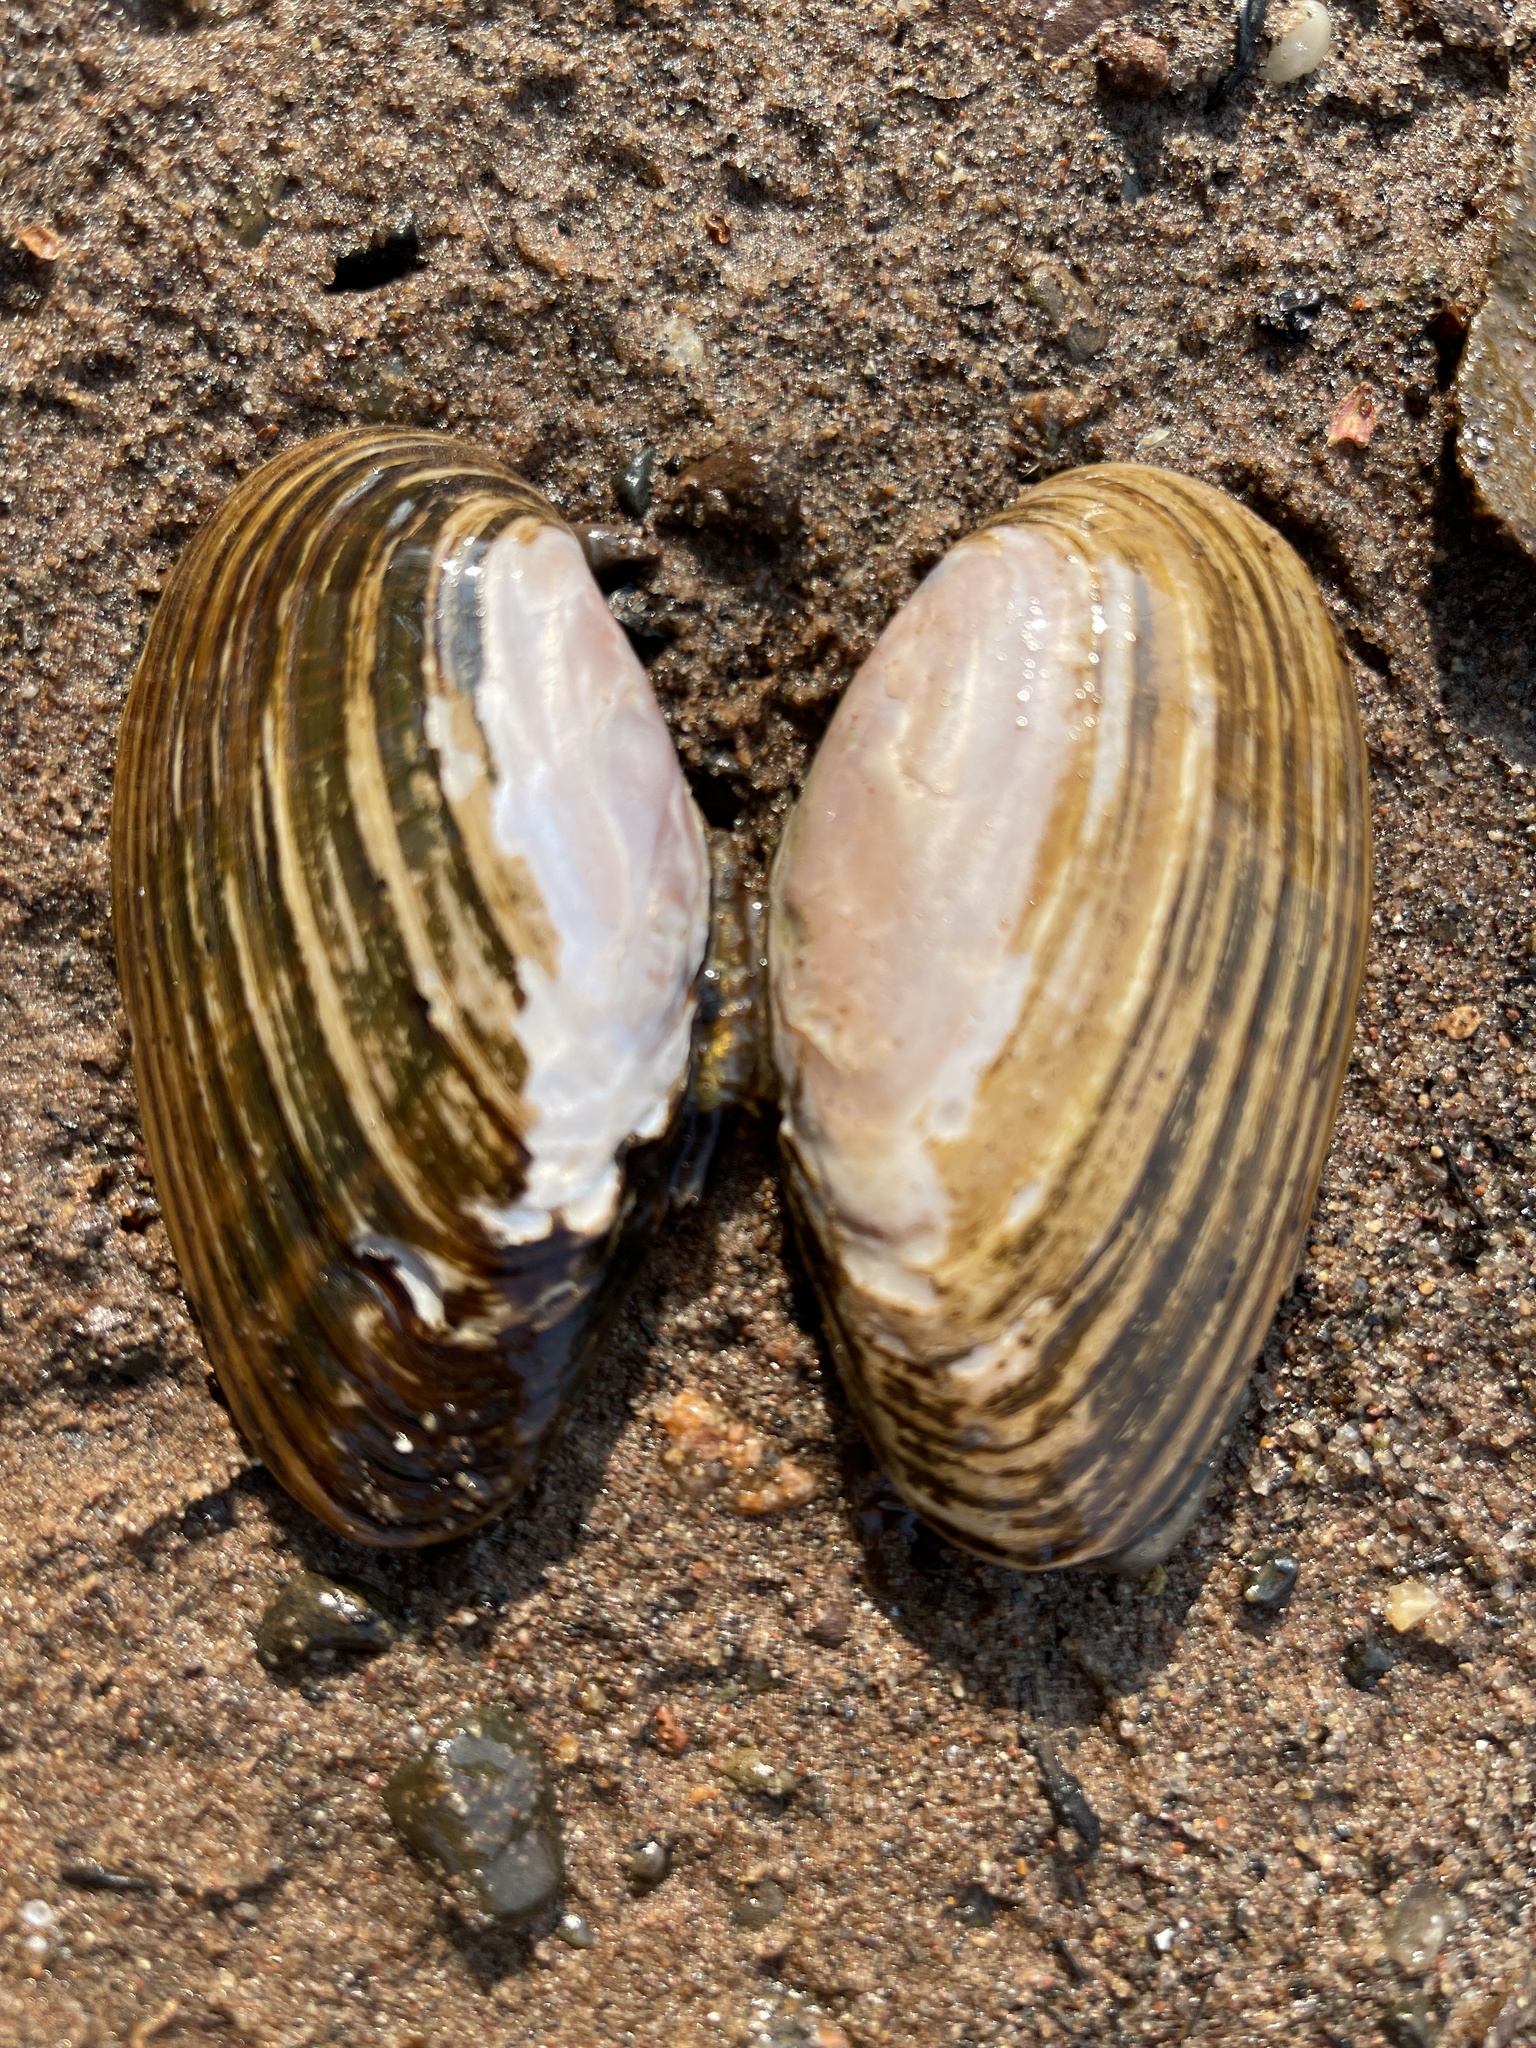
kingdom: Animalia
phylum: Mollusca
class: Bivalvia
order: Unionida
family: Unionidae
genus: Eurynia
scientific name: Eurynia dilatata
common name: Spike
